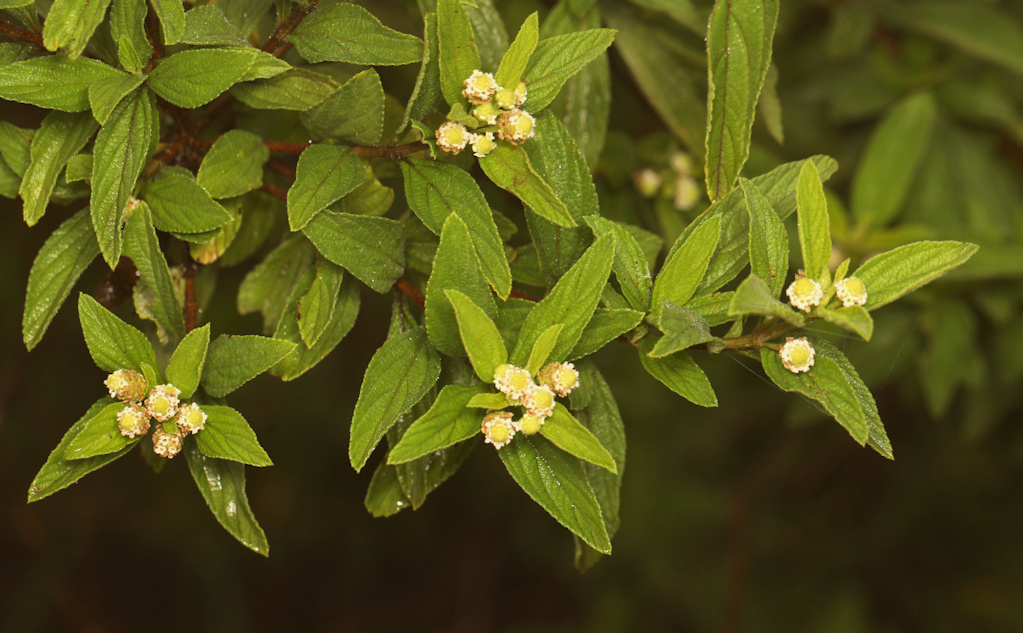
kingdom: Plantae
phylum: Tracheophyta
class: Magnoliopsida
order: Lamiales
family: Verbenaceae
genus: Lippia
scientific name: Lippia javanica
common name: Lemonbush
